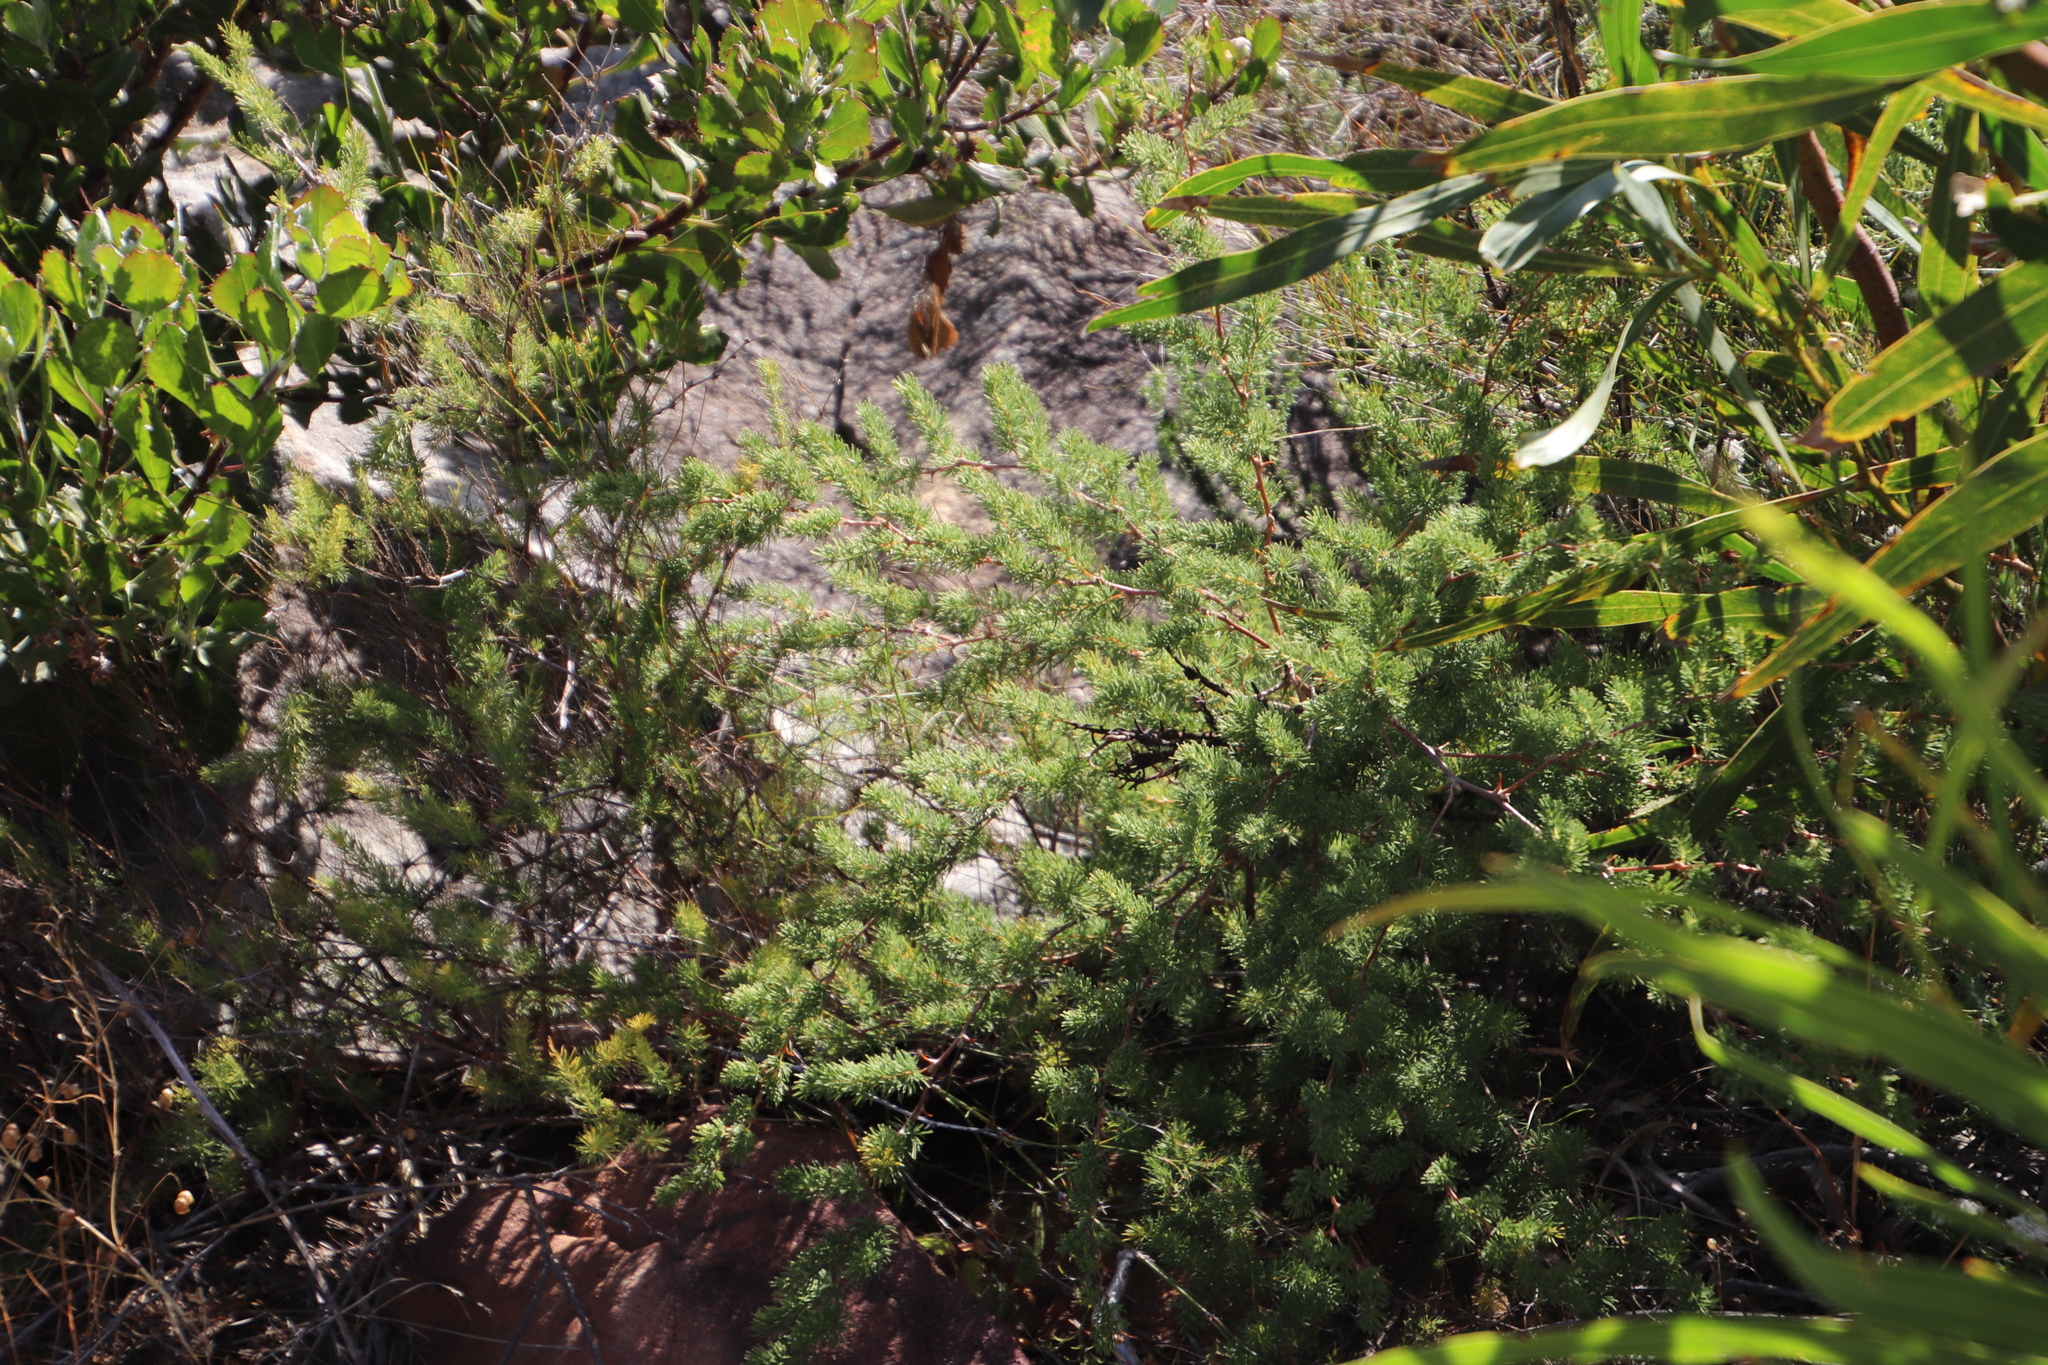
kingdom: Plantae
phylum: Tracheophyta
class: Liliopsida
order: Asparagales
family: Asparagaceae
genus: Asparagus
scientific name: Asparagus rubicundus
